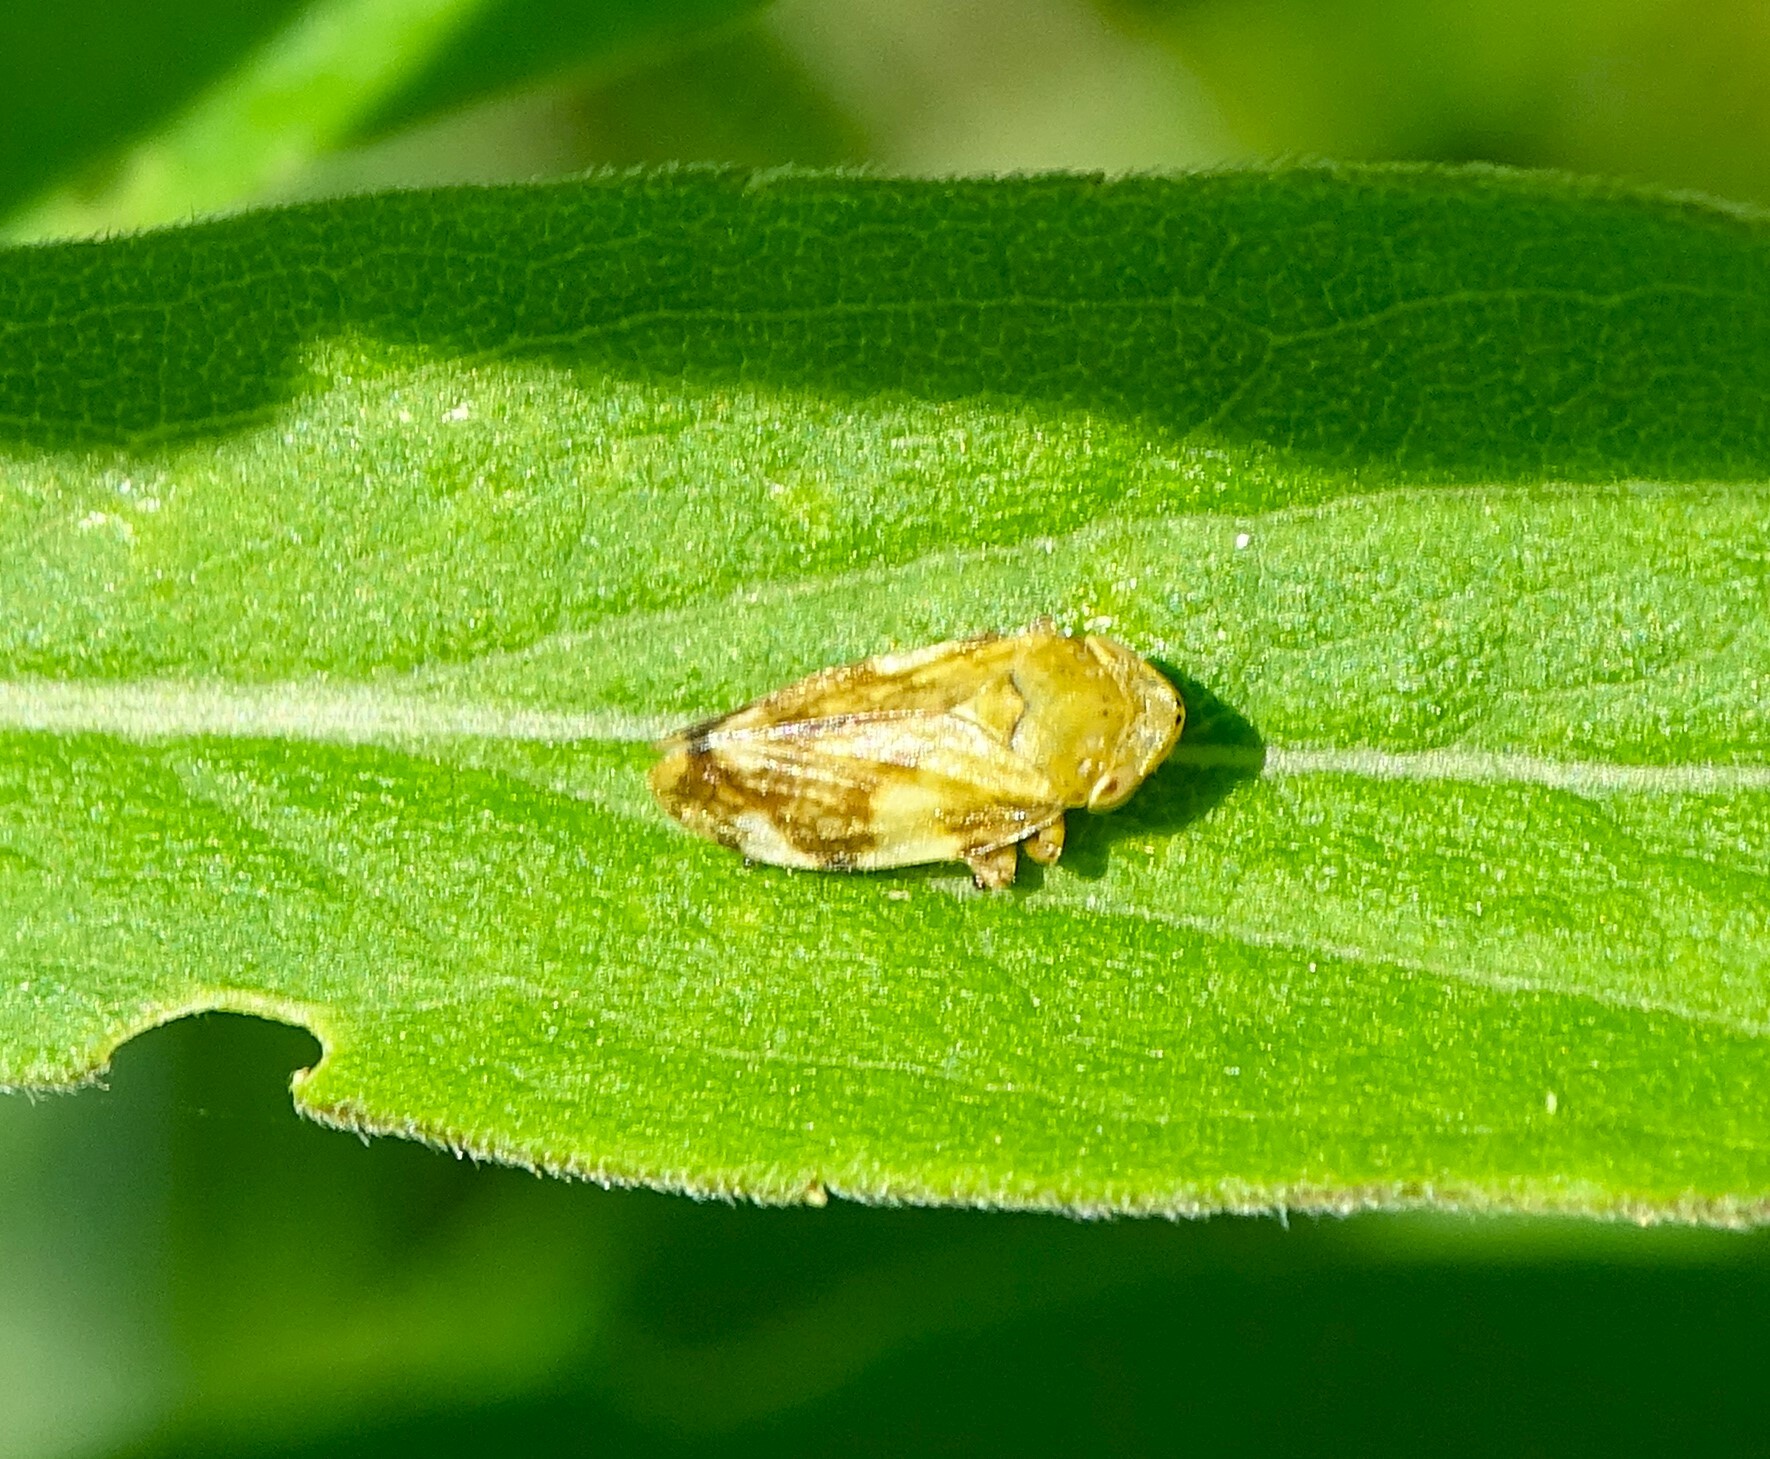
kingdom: Animalia
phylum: Arthropoda
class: Insecta
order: Hemiptera
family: Aphrophoridae
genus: Philaenus
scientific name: Philaenus spumarius
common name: Meadow spittlebug
